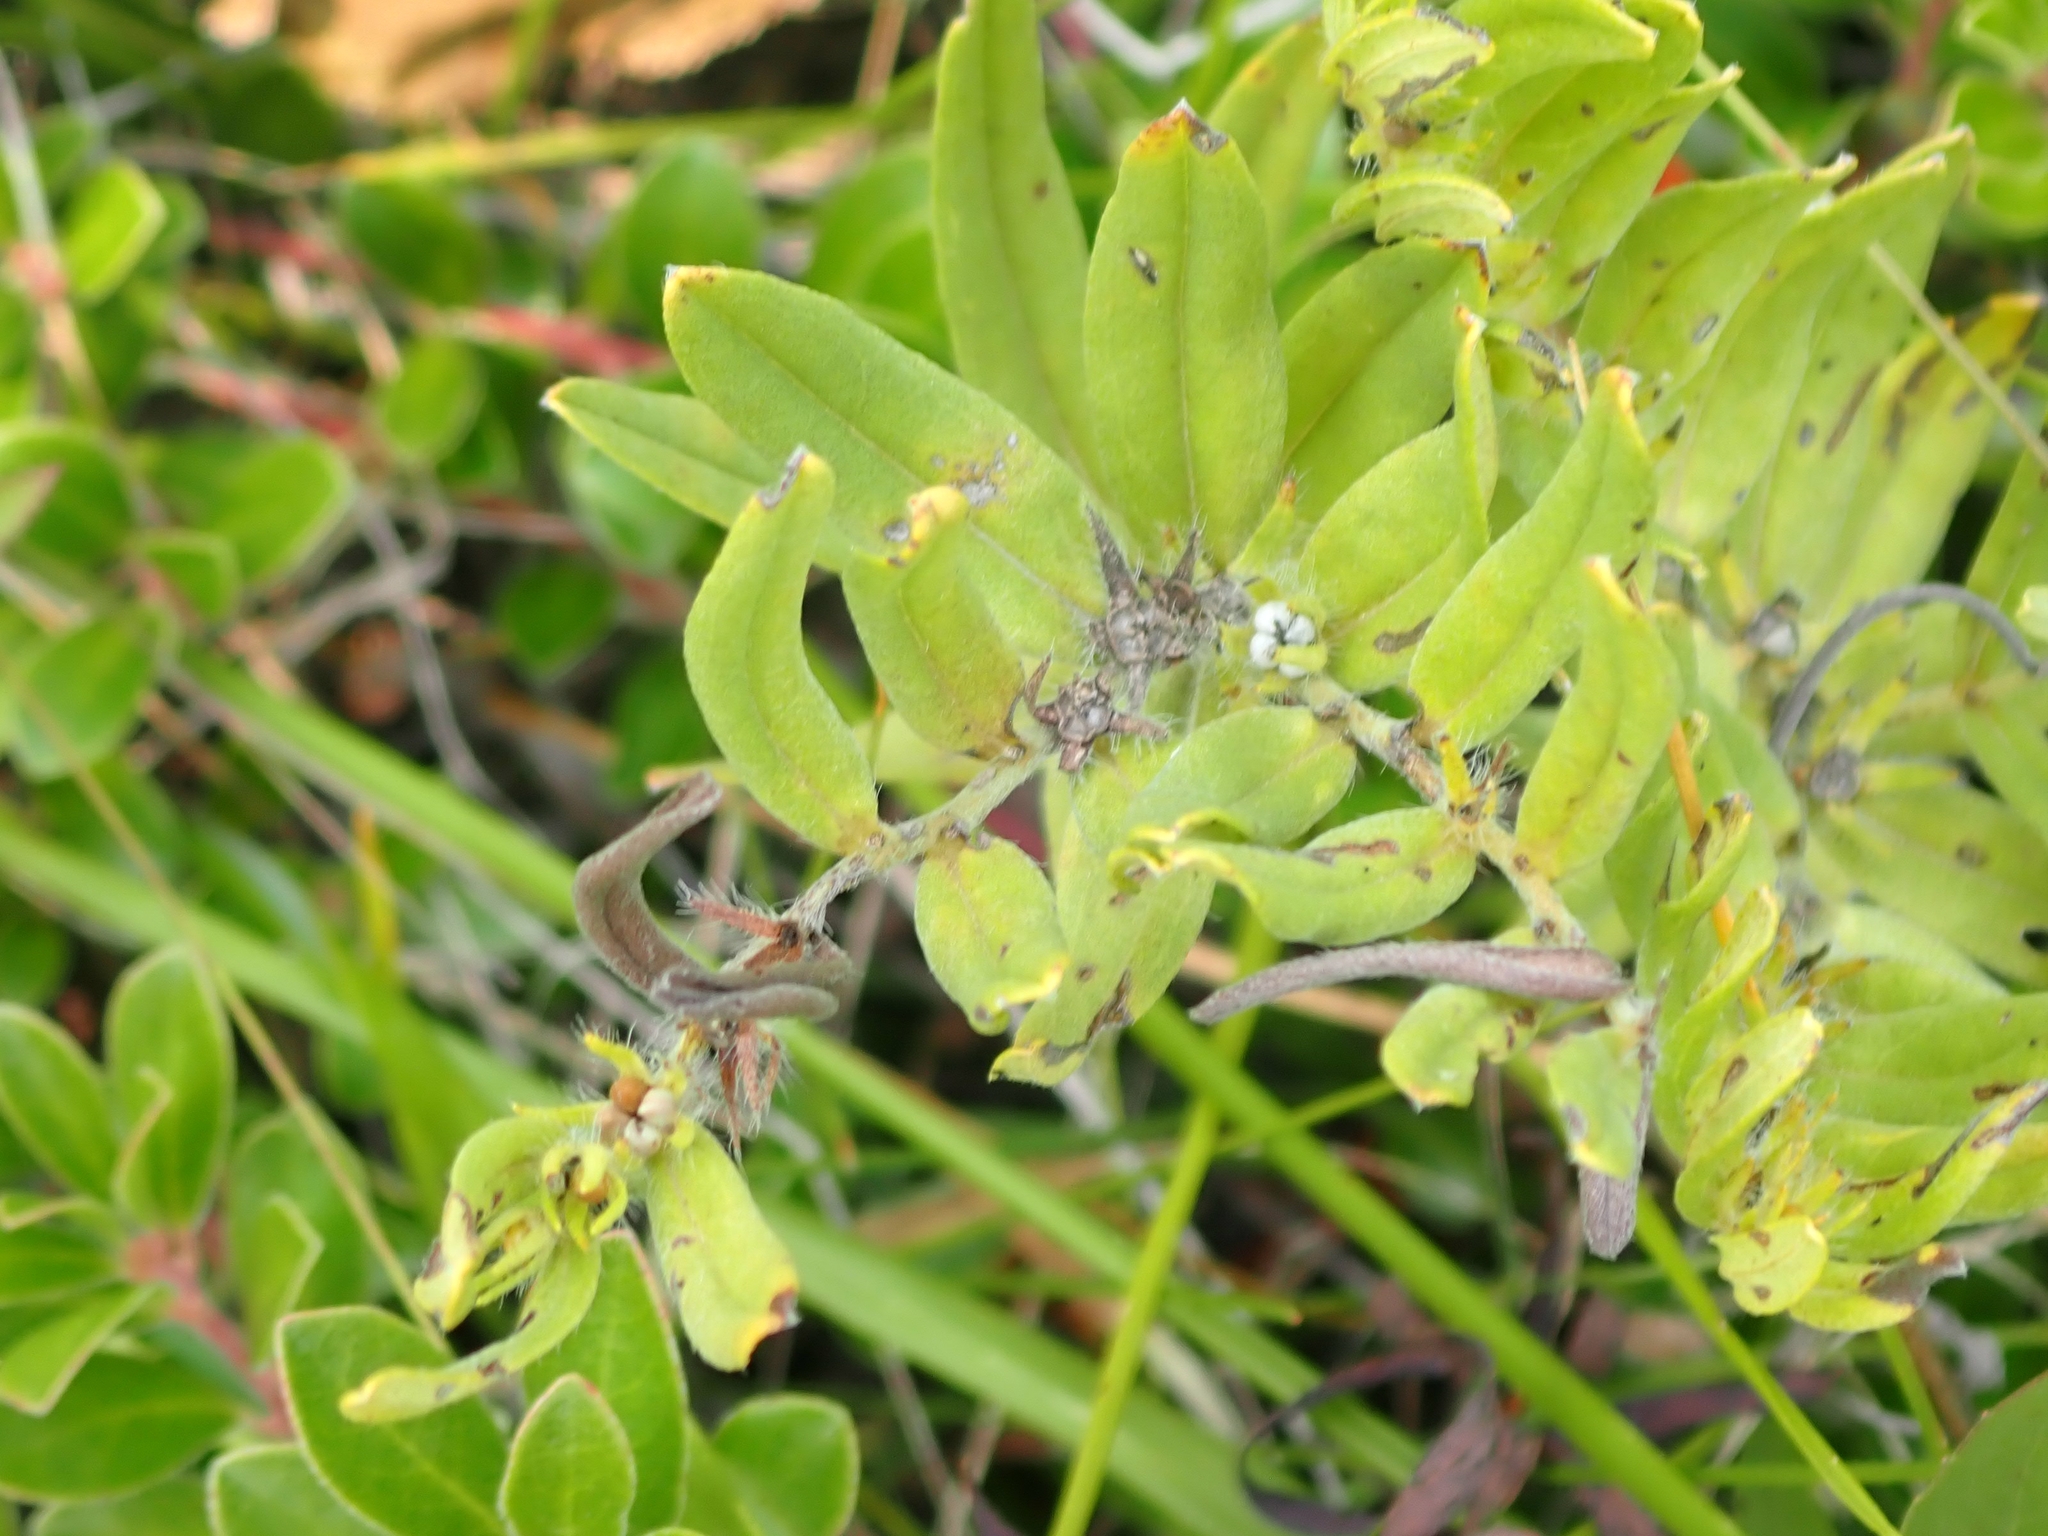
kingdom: Plantae
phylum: Tracheophyta
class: Magnoliopsida
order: Boraginales
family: Boraginaceae
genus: Lithospermum
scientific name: Lithospermum canescens
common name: Hoary puccoon
